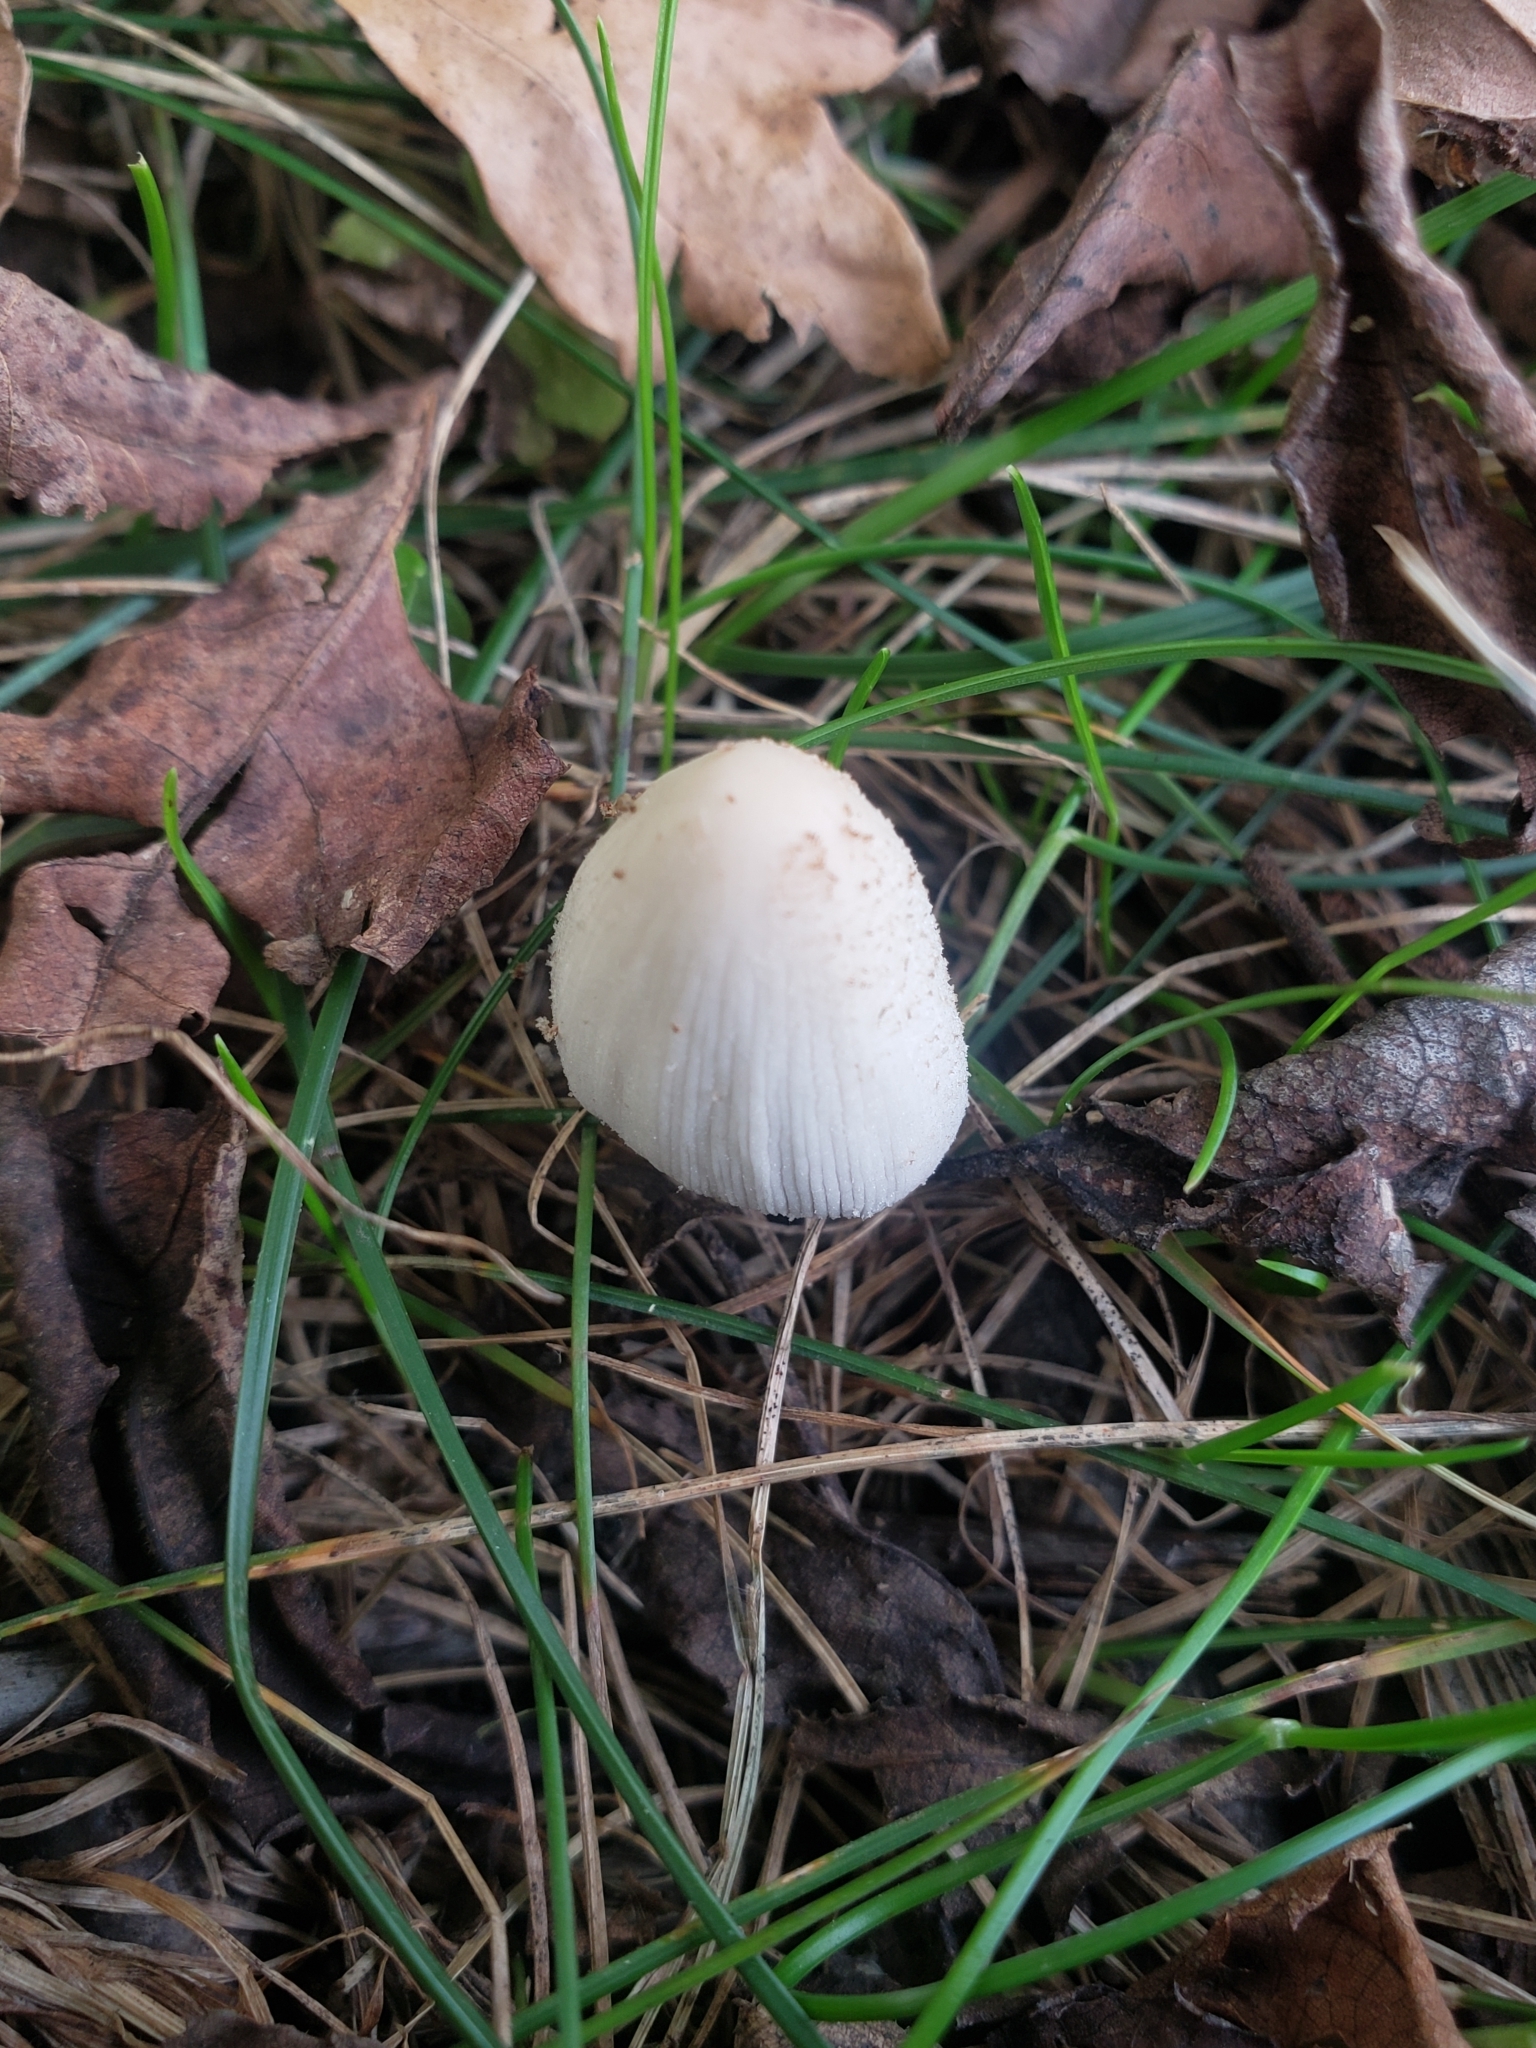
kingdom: Fungi
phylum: Basidiomycota
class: Agaricomycetes
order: Agaricales
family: Psathyrellaceae
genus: Coprinellus
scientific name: Coprinellus micaceus
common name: Glistening ink-cap
